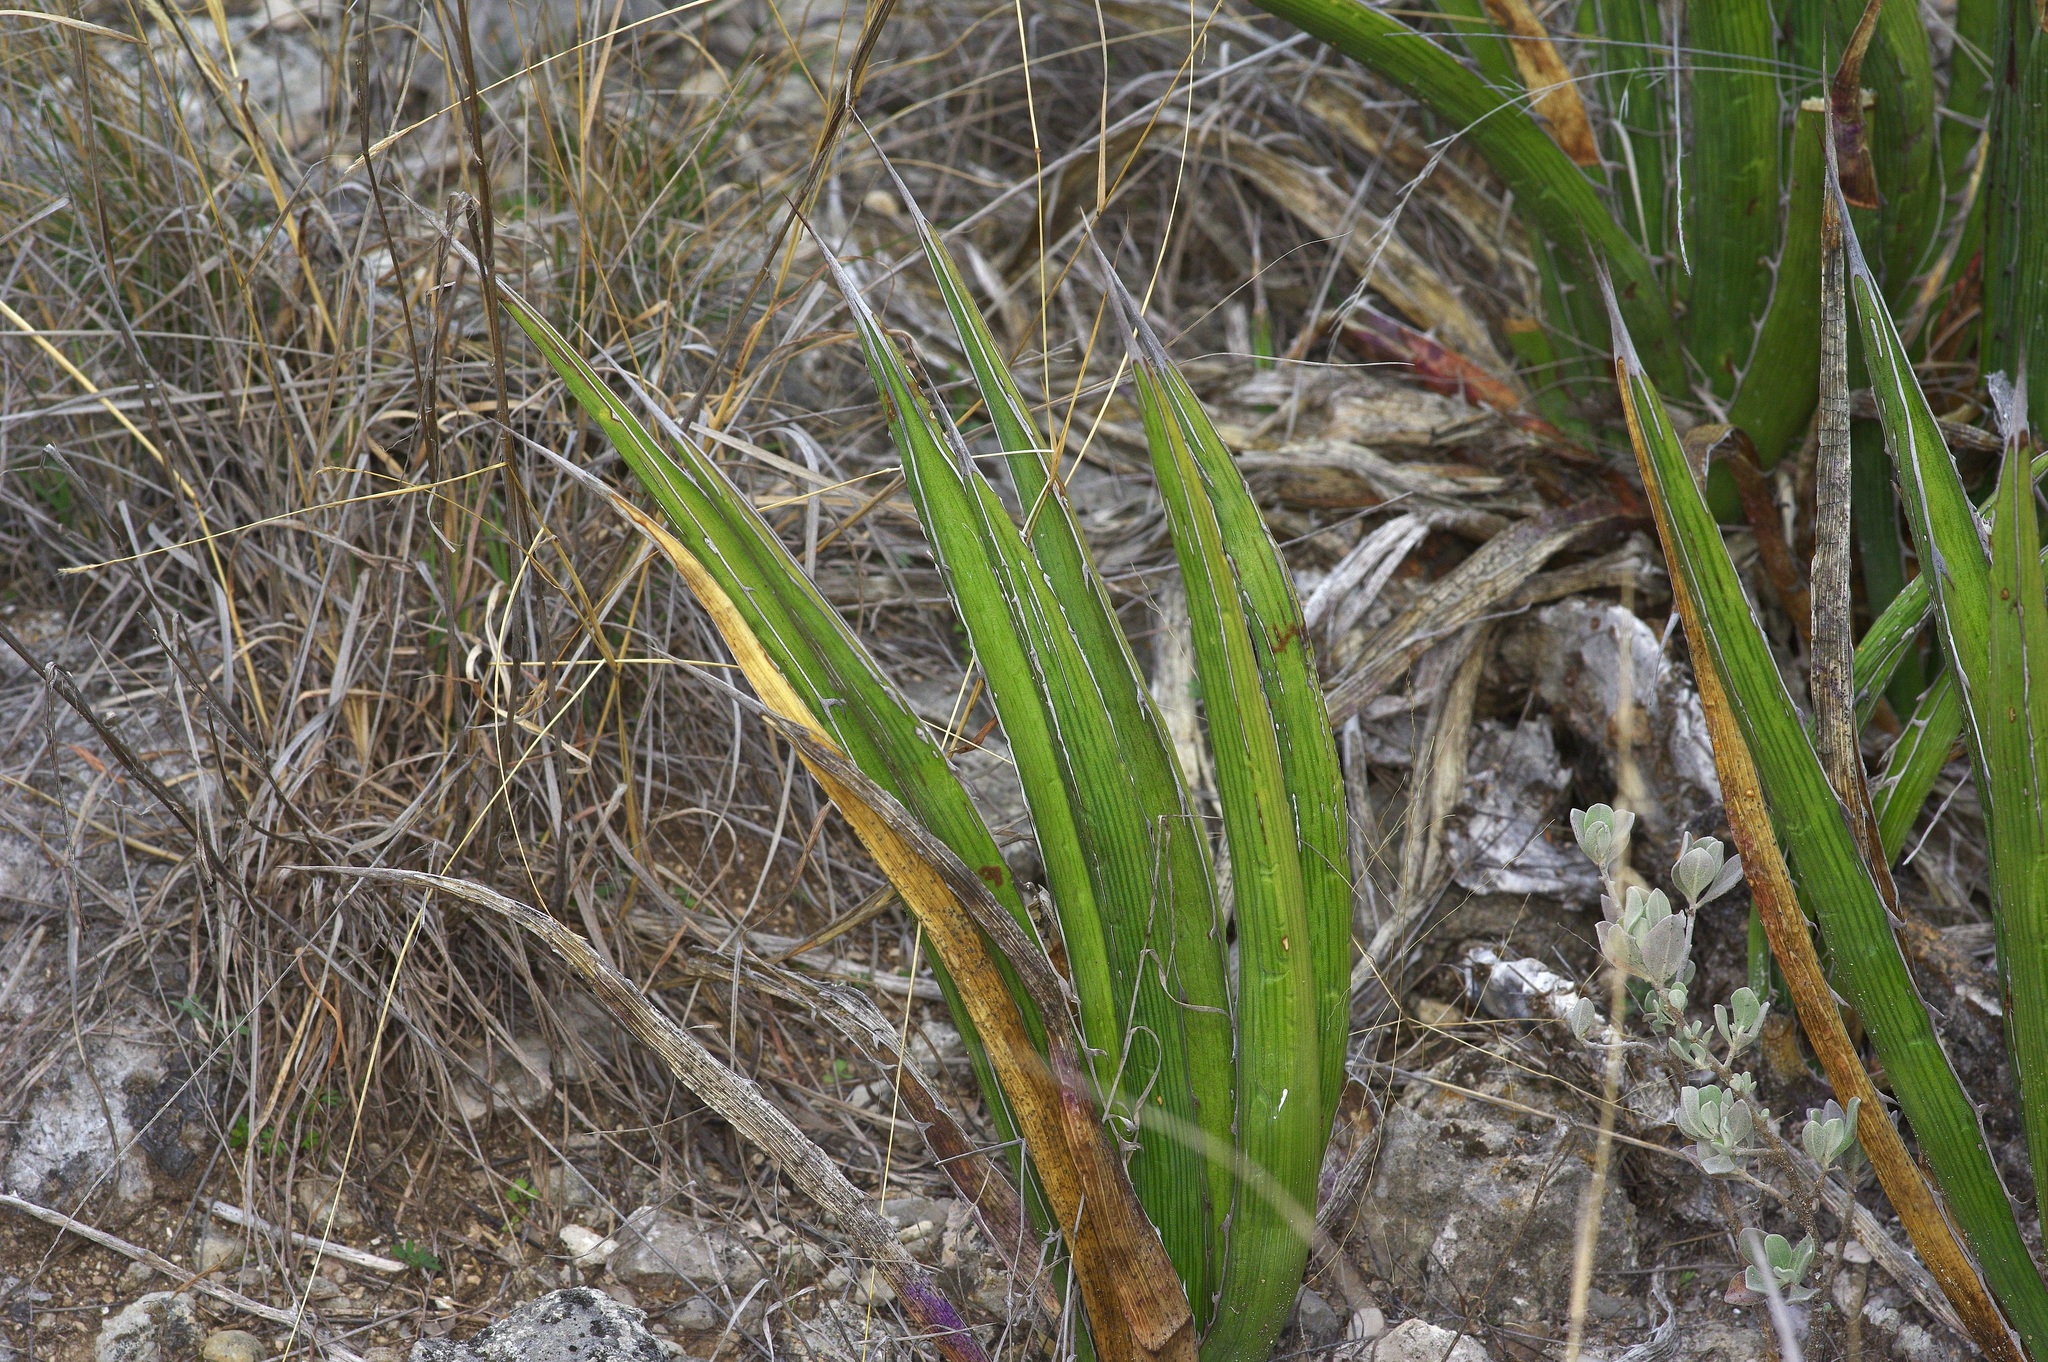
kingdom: Plantae
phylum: Tracheophyta
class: Liliopsida
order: Asparagales
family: Asparagaceae
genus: Agave
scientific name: Agave lechuguilla
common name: Lecheguilla agave
